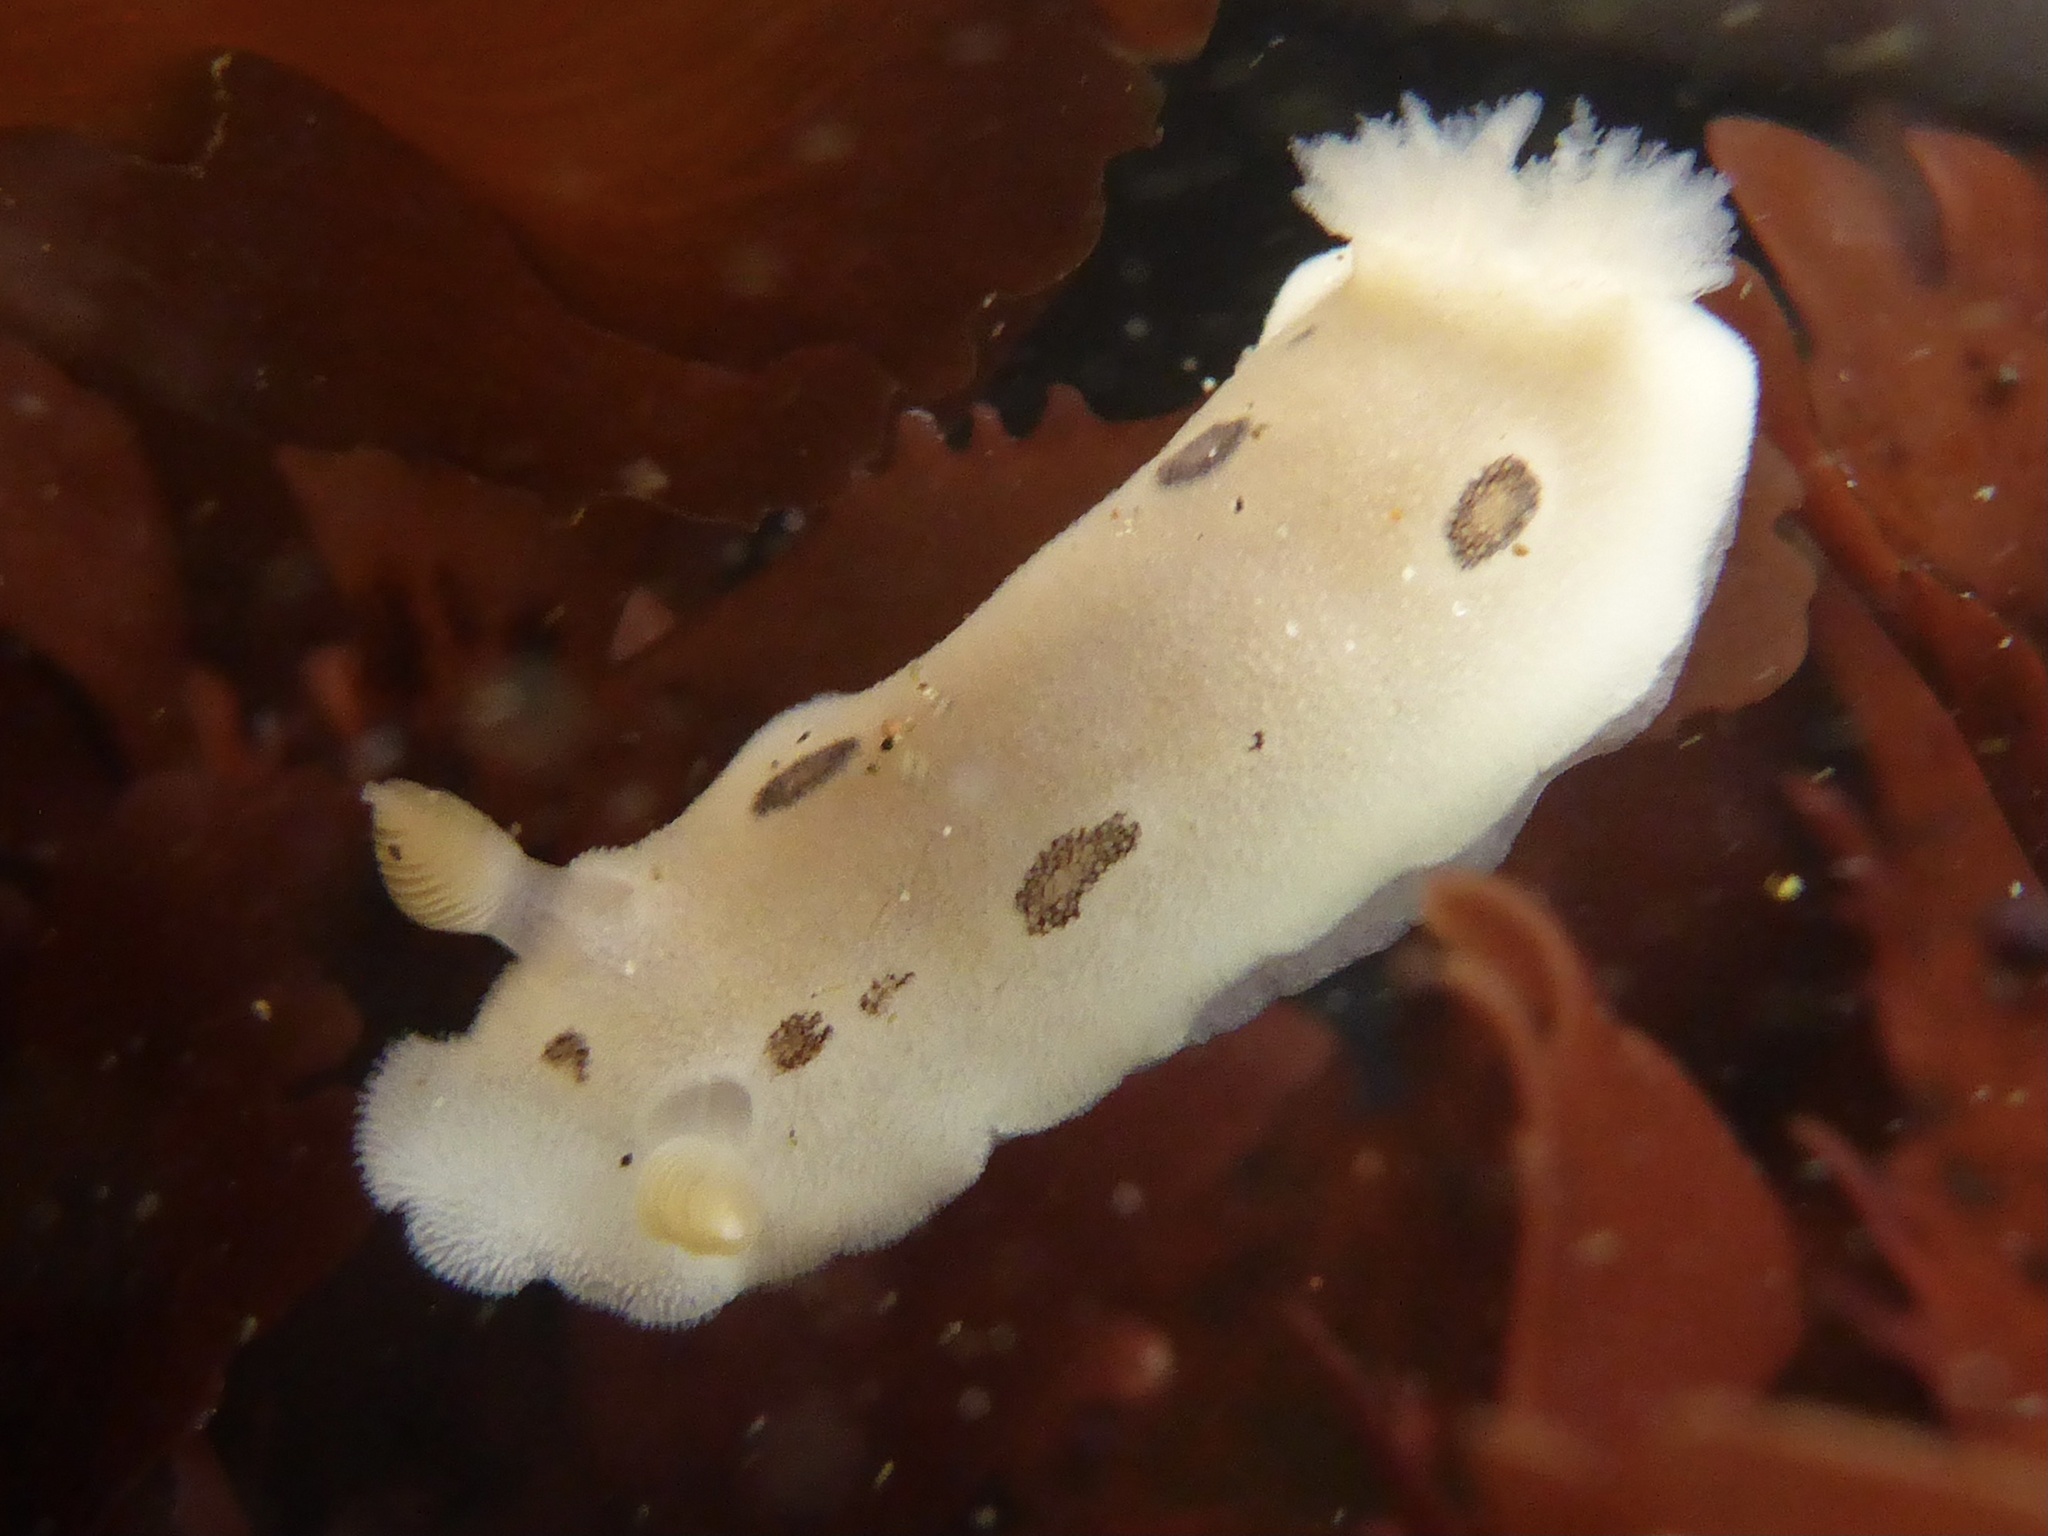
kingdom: Animalia
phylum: Mollusca
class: Gastropoda
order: Nudibranchia
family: Discodorididae
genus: Diaulula
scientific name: Diaulula sandiegensis
